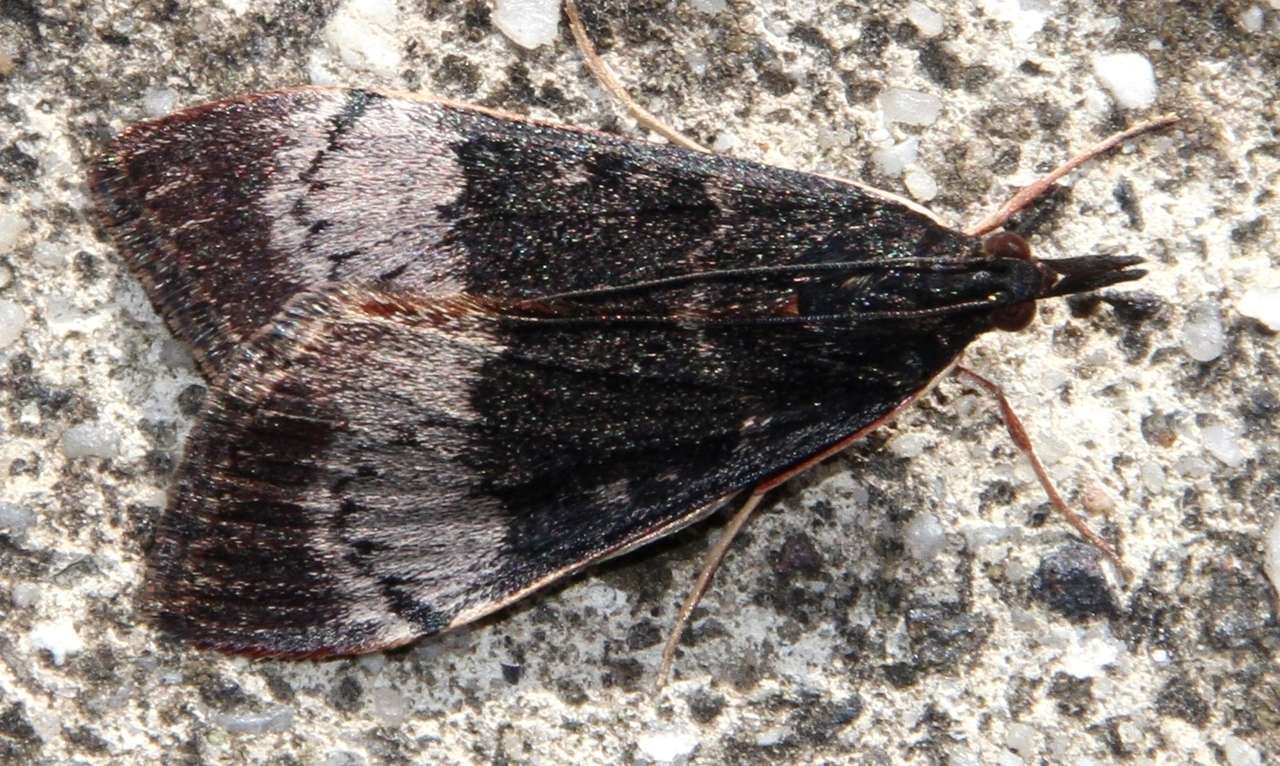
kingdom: Animalia
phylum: Arthropoda
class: Insecta
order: Lepidoptera
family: Crambidae
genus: Uresiphita
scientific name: Uresiphita ornithopteralis
